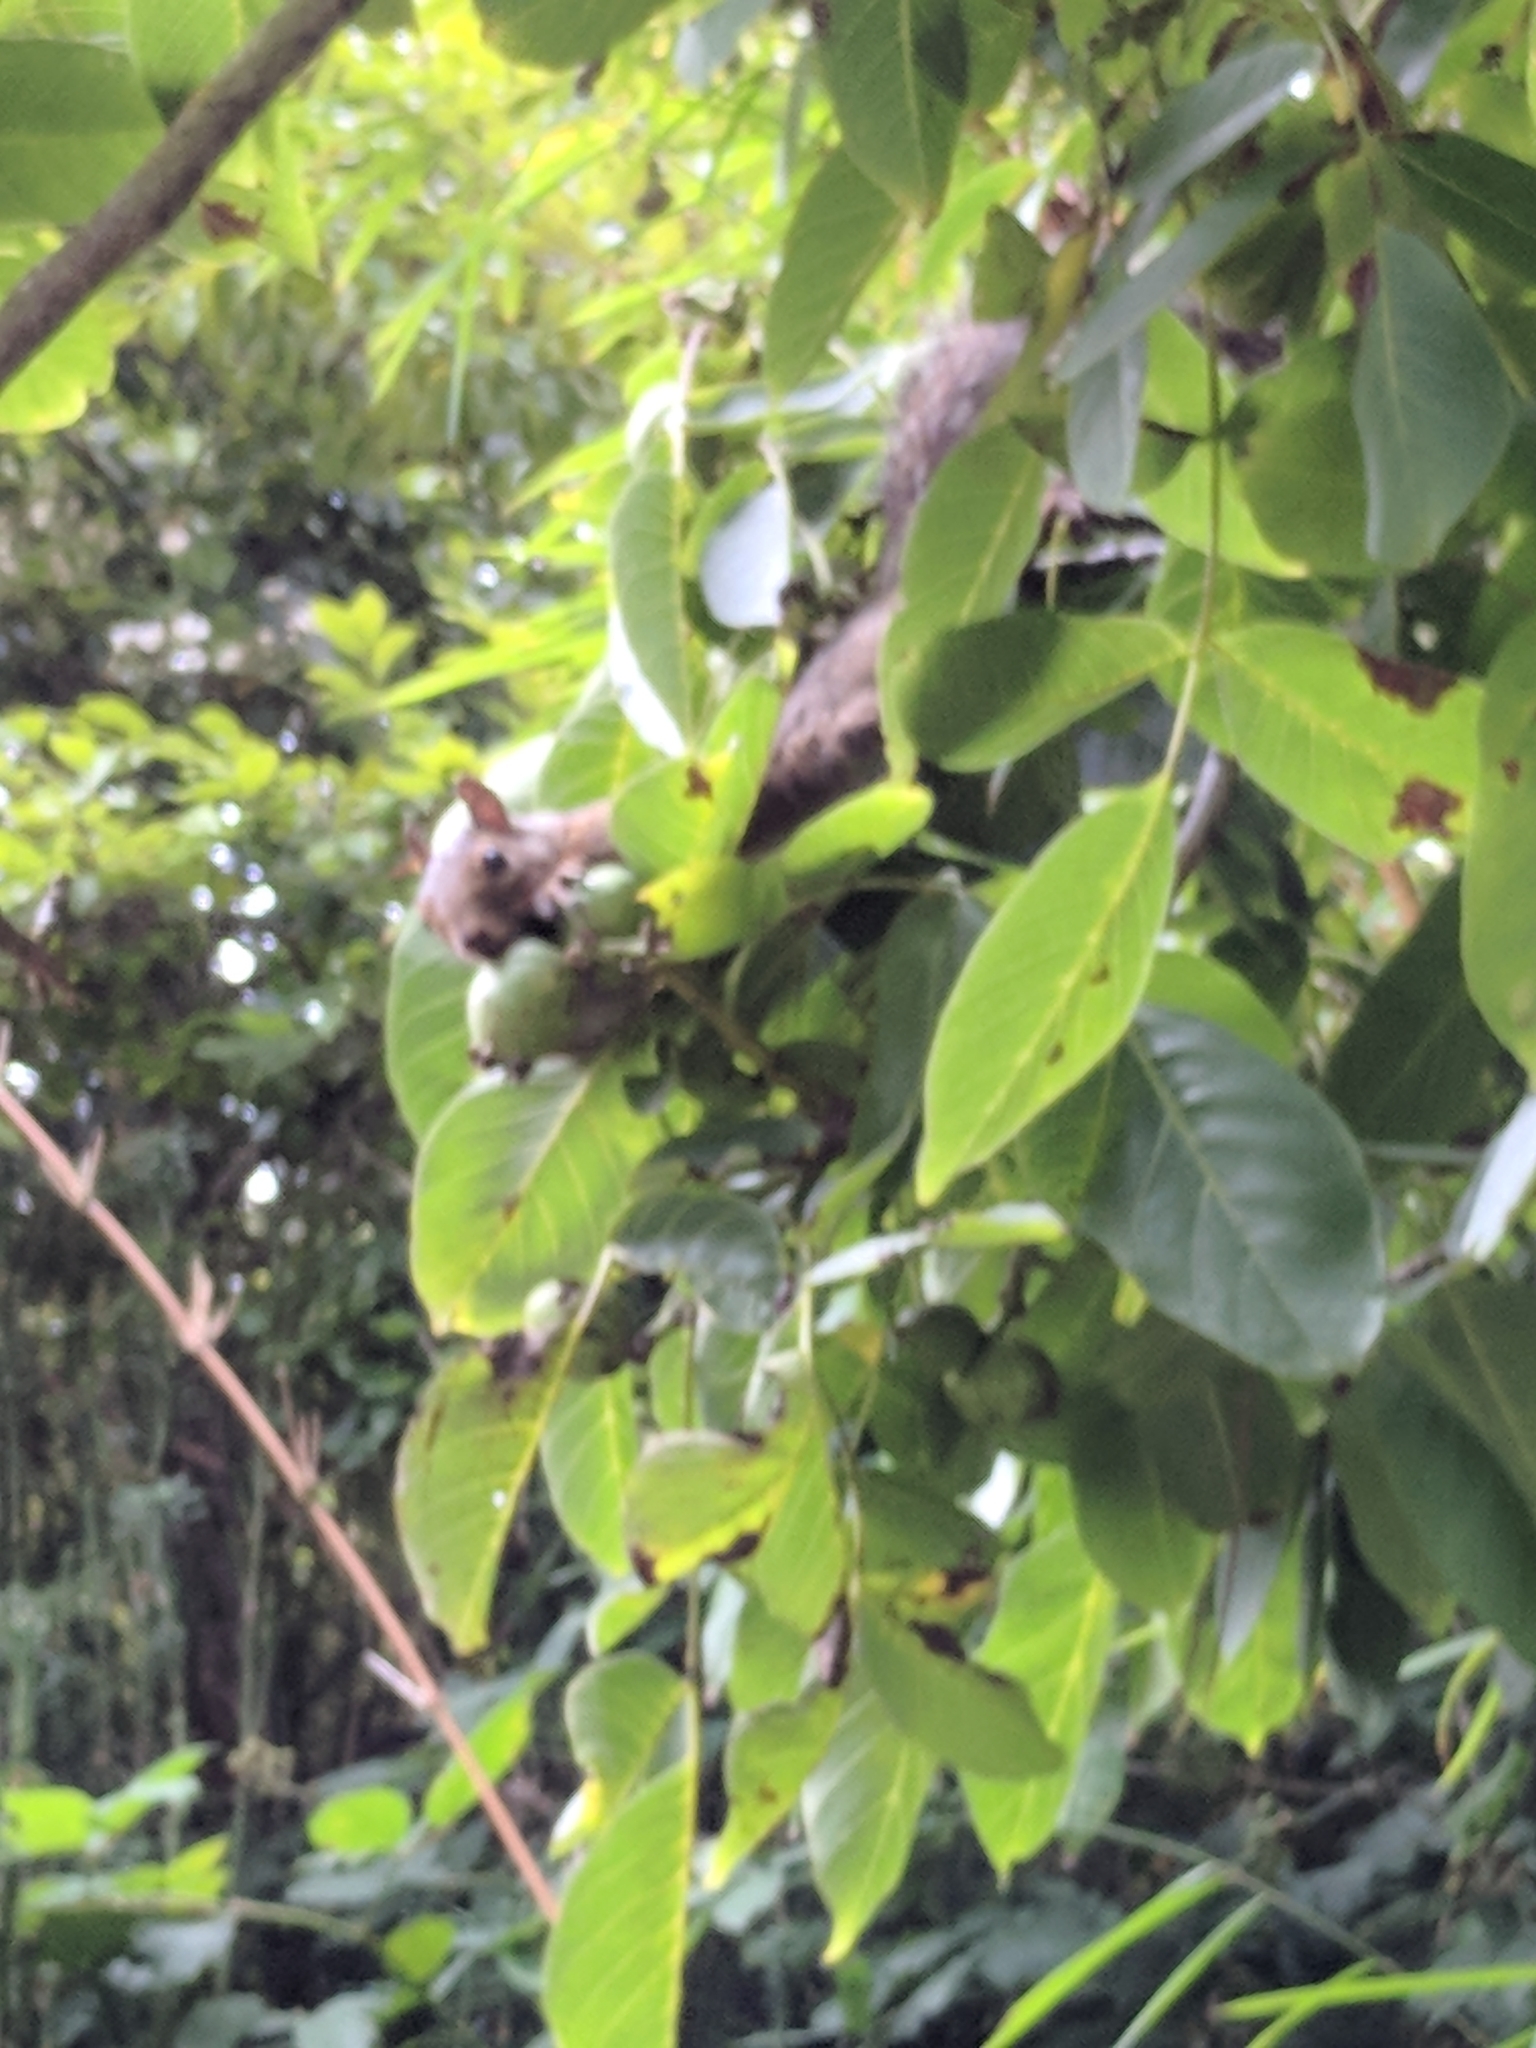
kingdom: Animalia
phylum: Chordata
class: Mammalia
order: Rodentia
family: Sciuridae
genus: Sciurus
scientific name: Sciurus carolinensis
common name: Eastern gray squirrel
